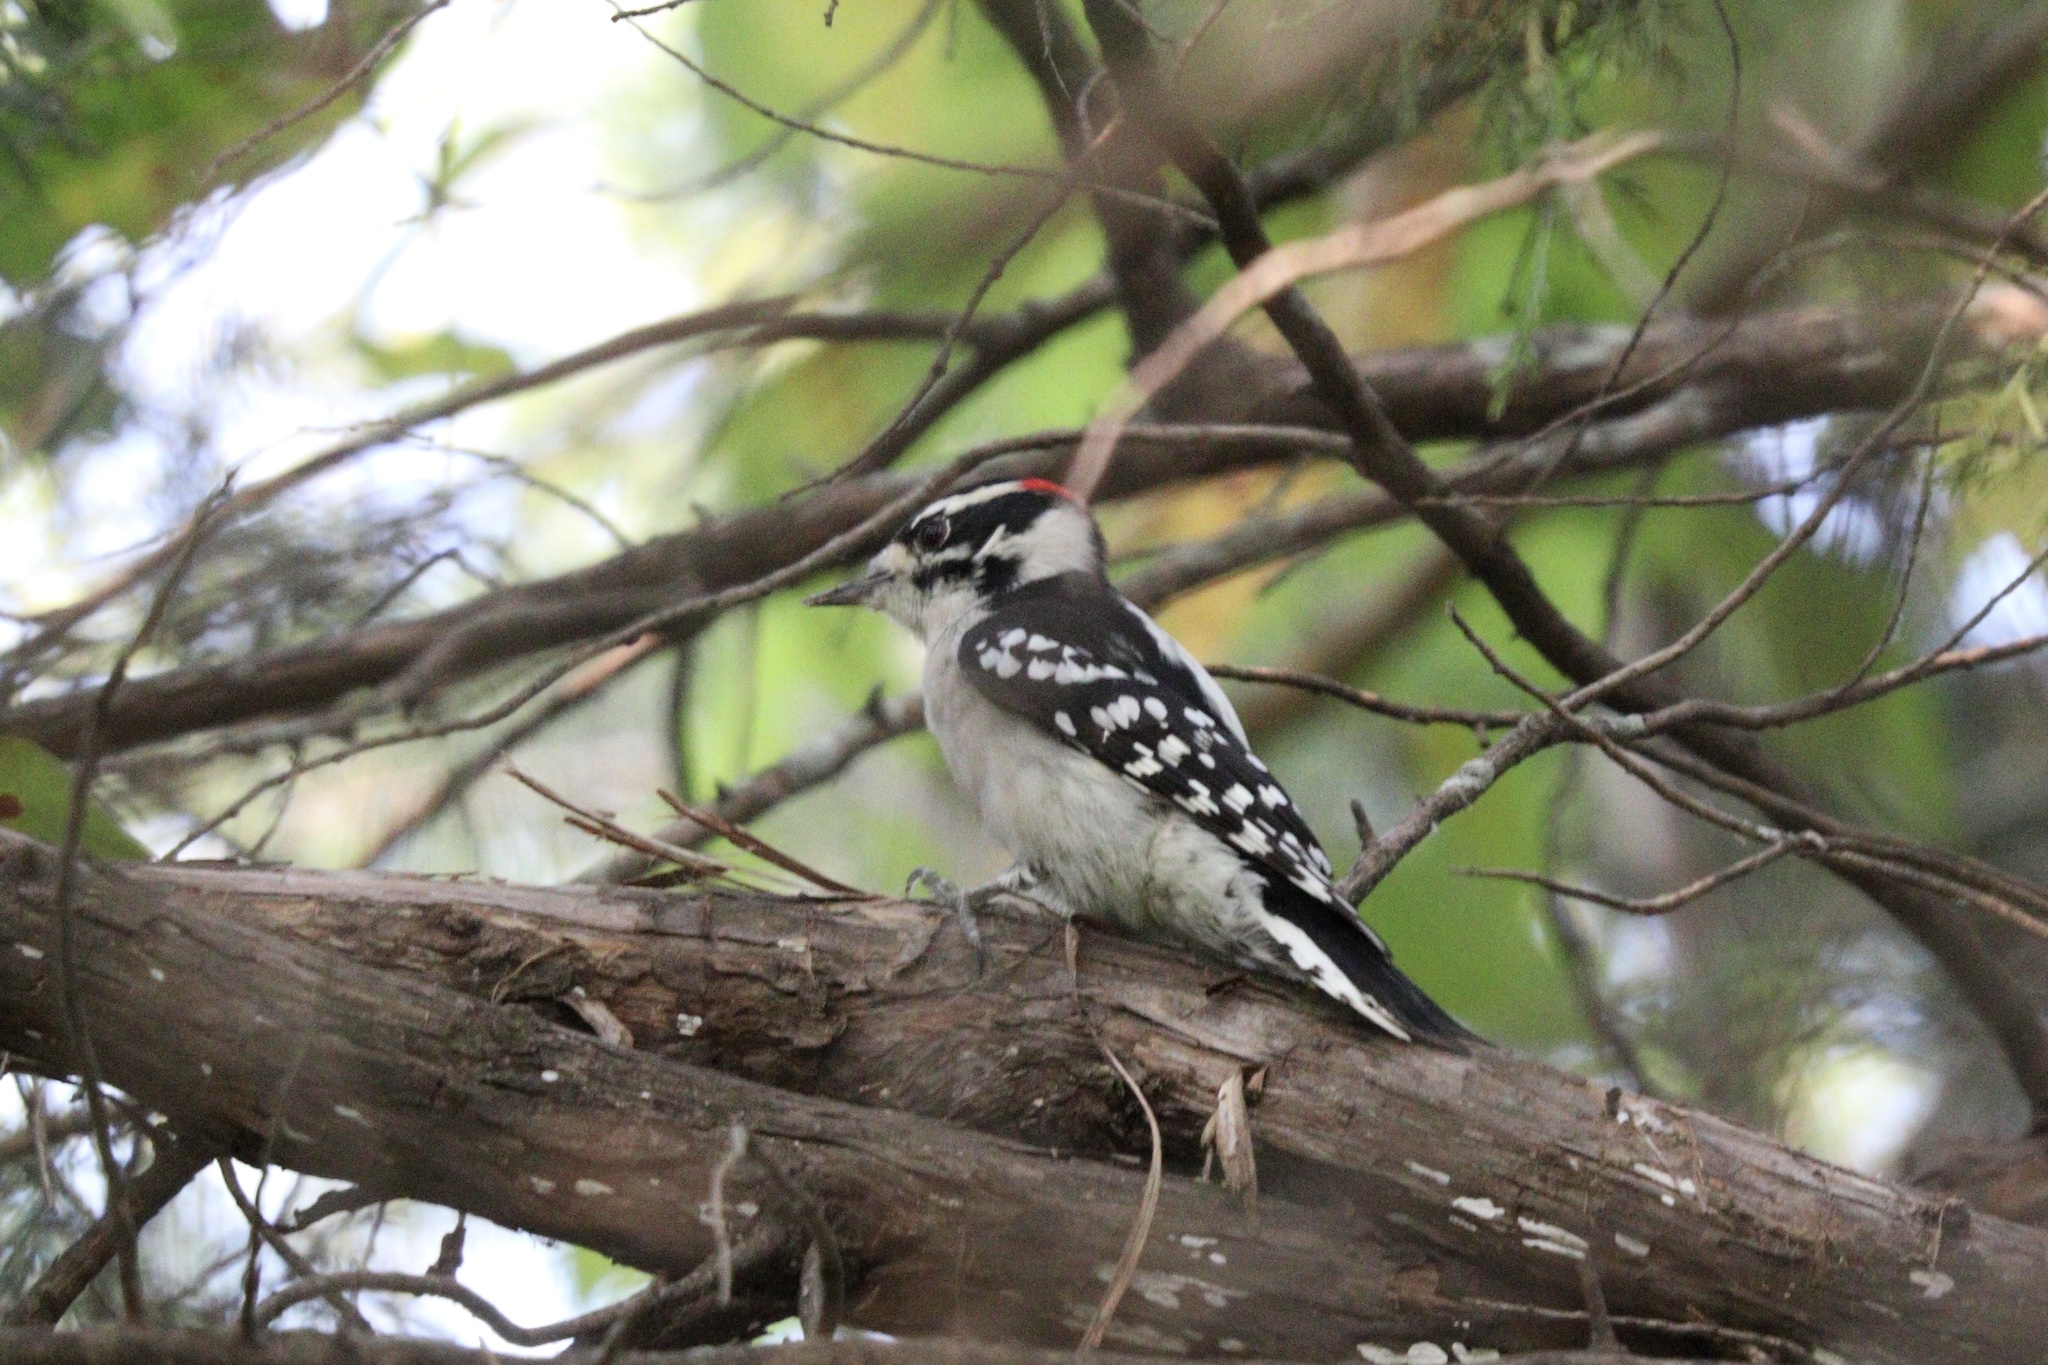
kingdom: Animalia
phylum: Chordata
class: Aves
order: Piciformes
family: Picidae
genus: Dryobates
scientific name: Dryobates pubescens
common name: Downy woodpecker
